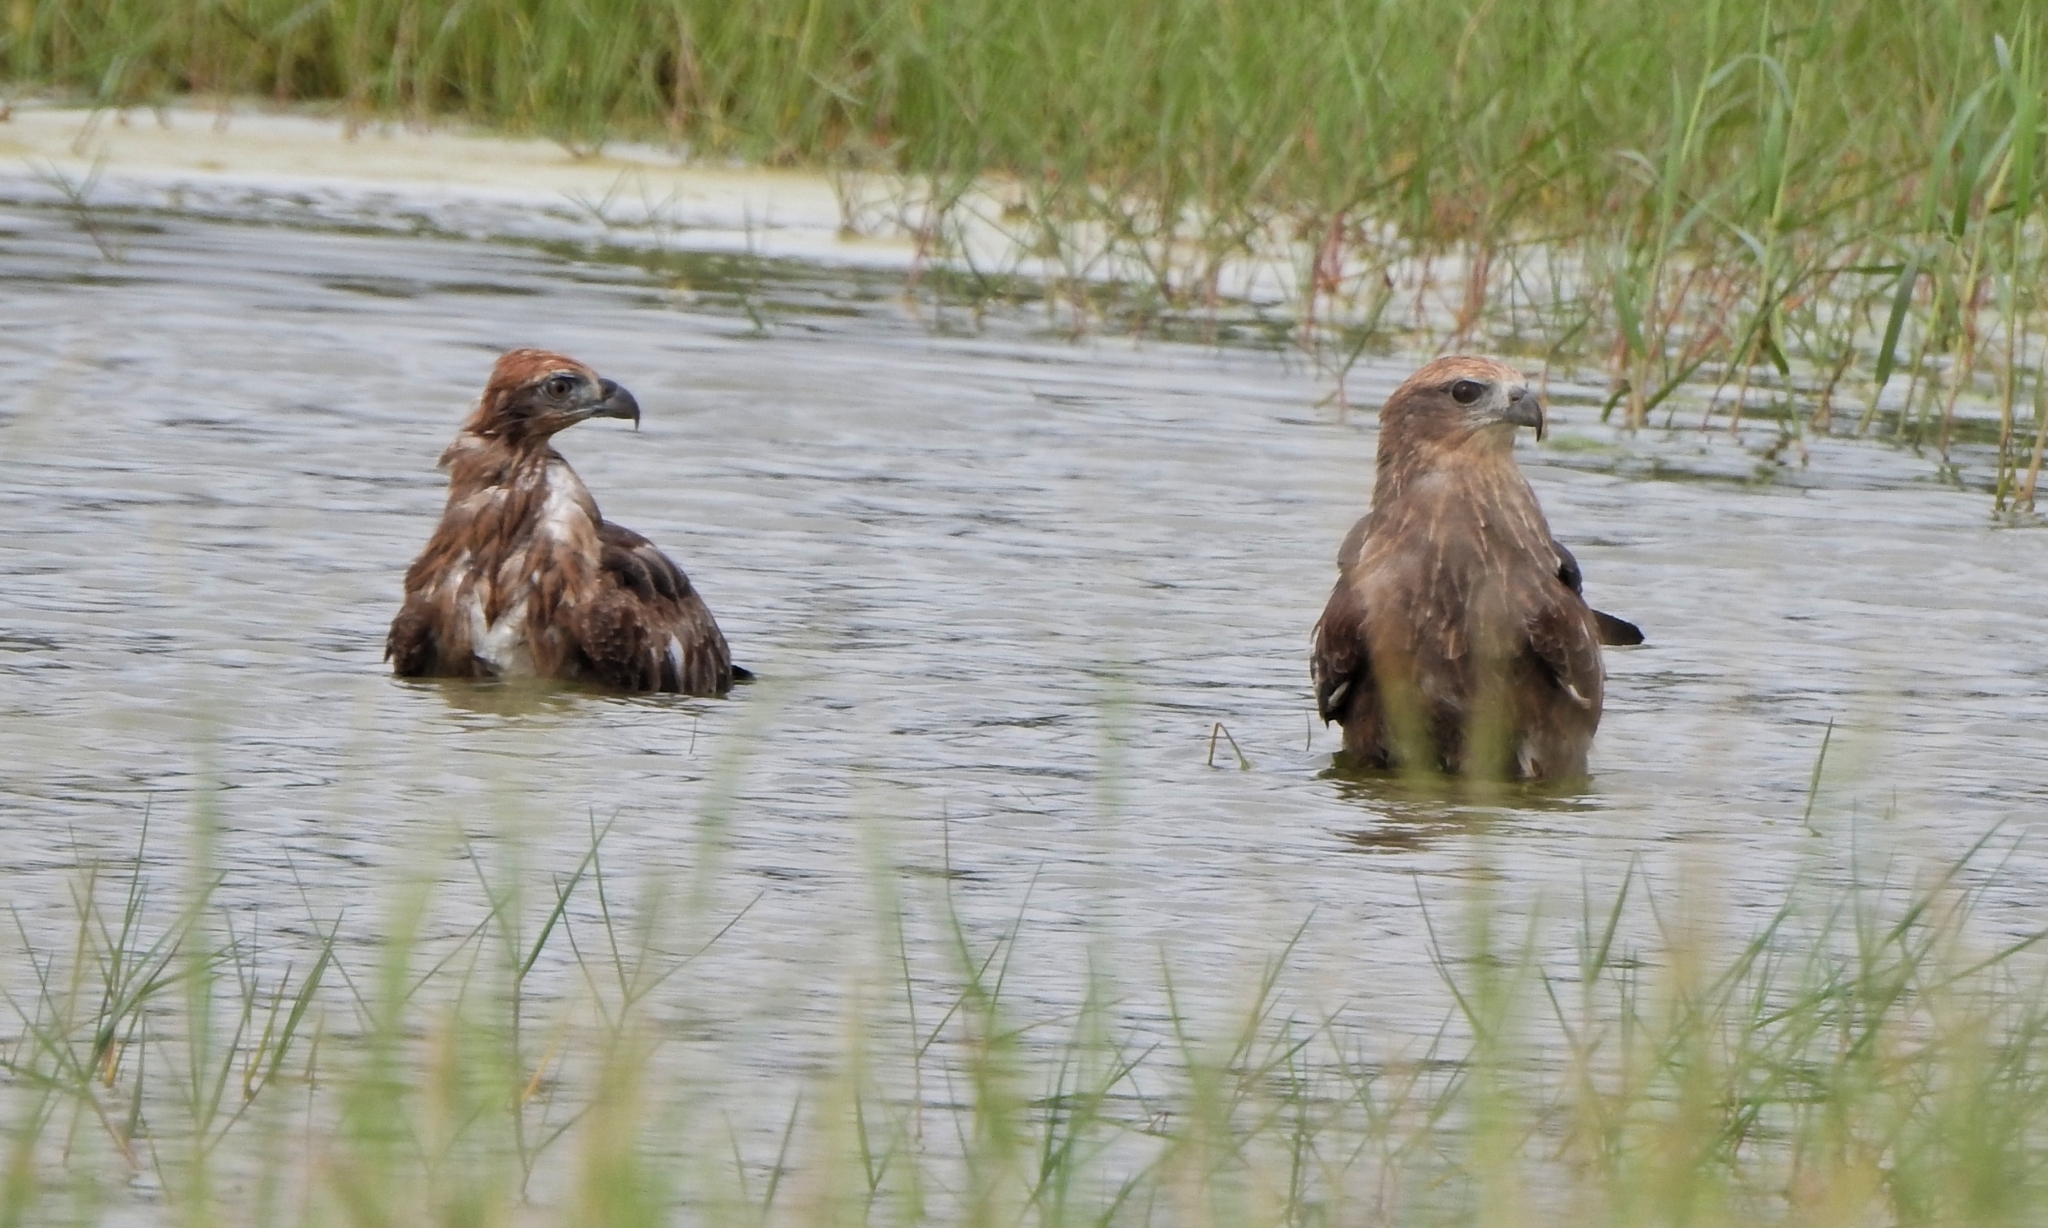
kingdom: Animalia
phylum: Chordata
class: Aves
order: Accipitriformes
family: Accipitridae
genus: Haliastur
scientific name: Haliastur indus
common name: Brahminy kite
